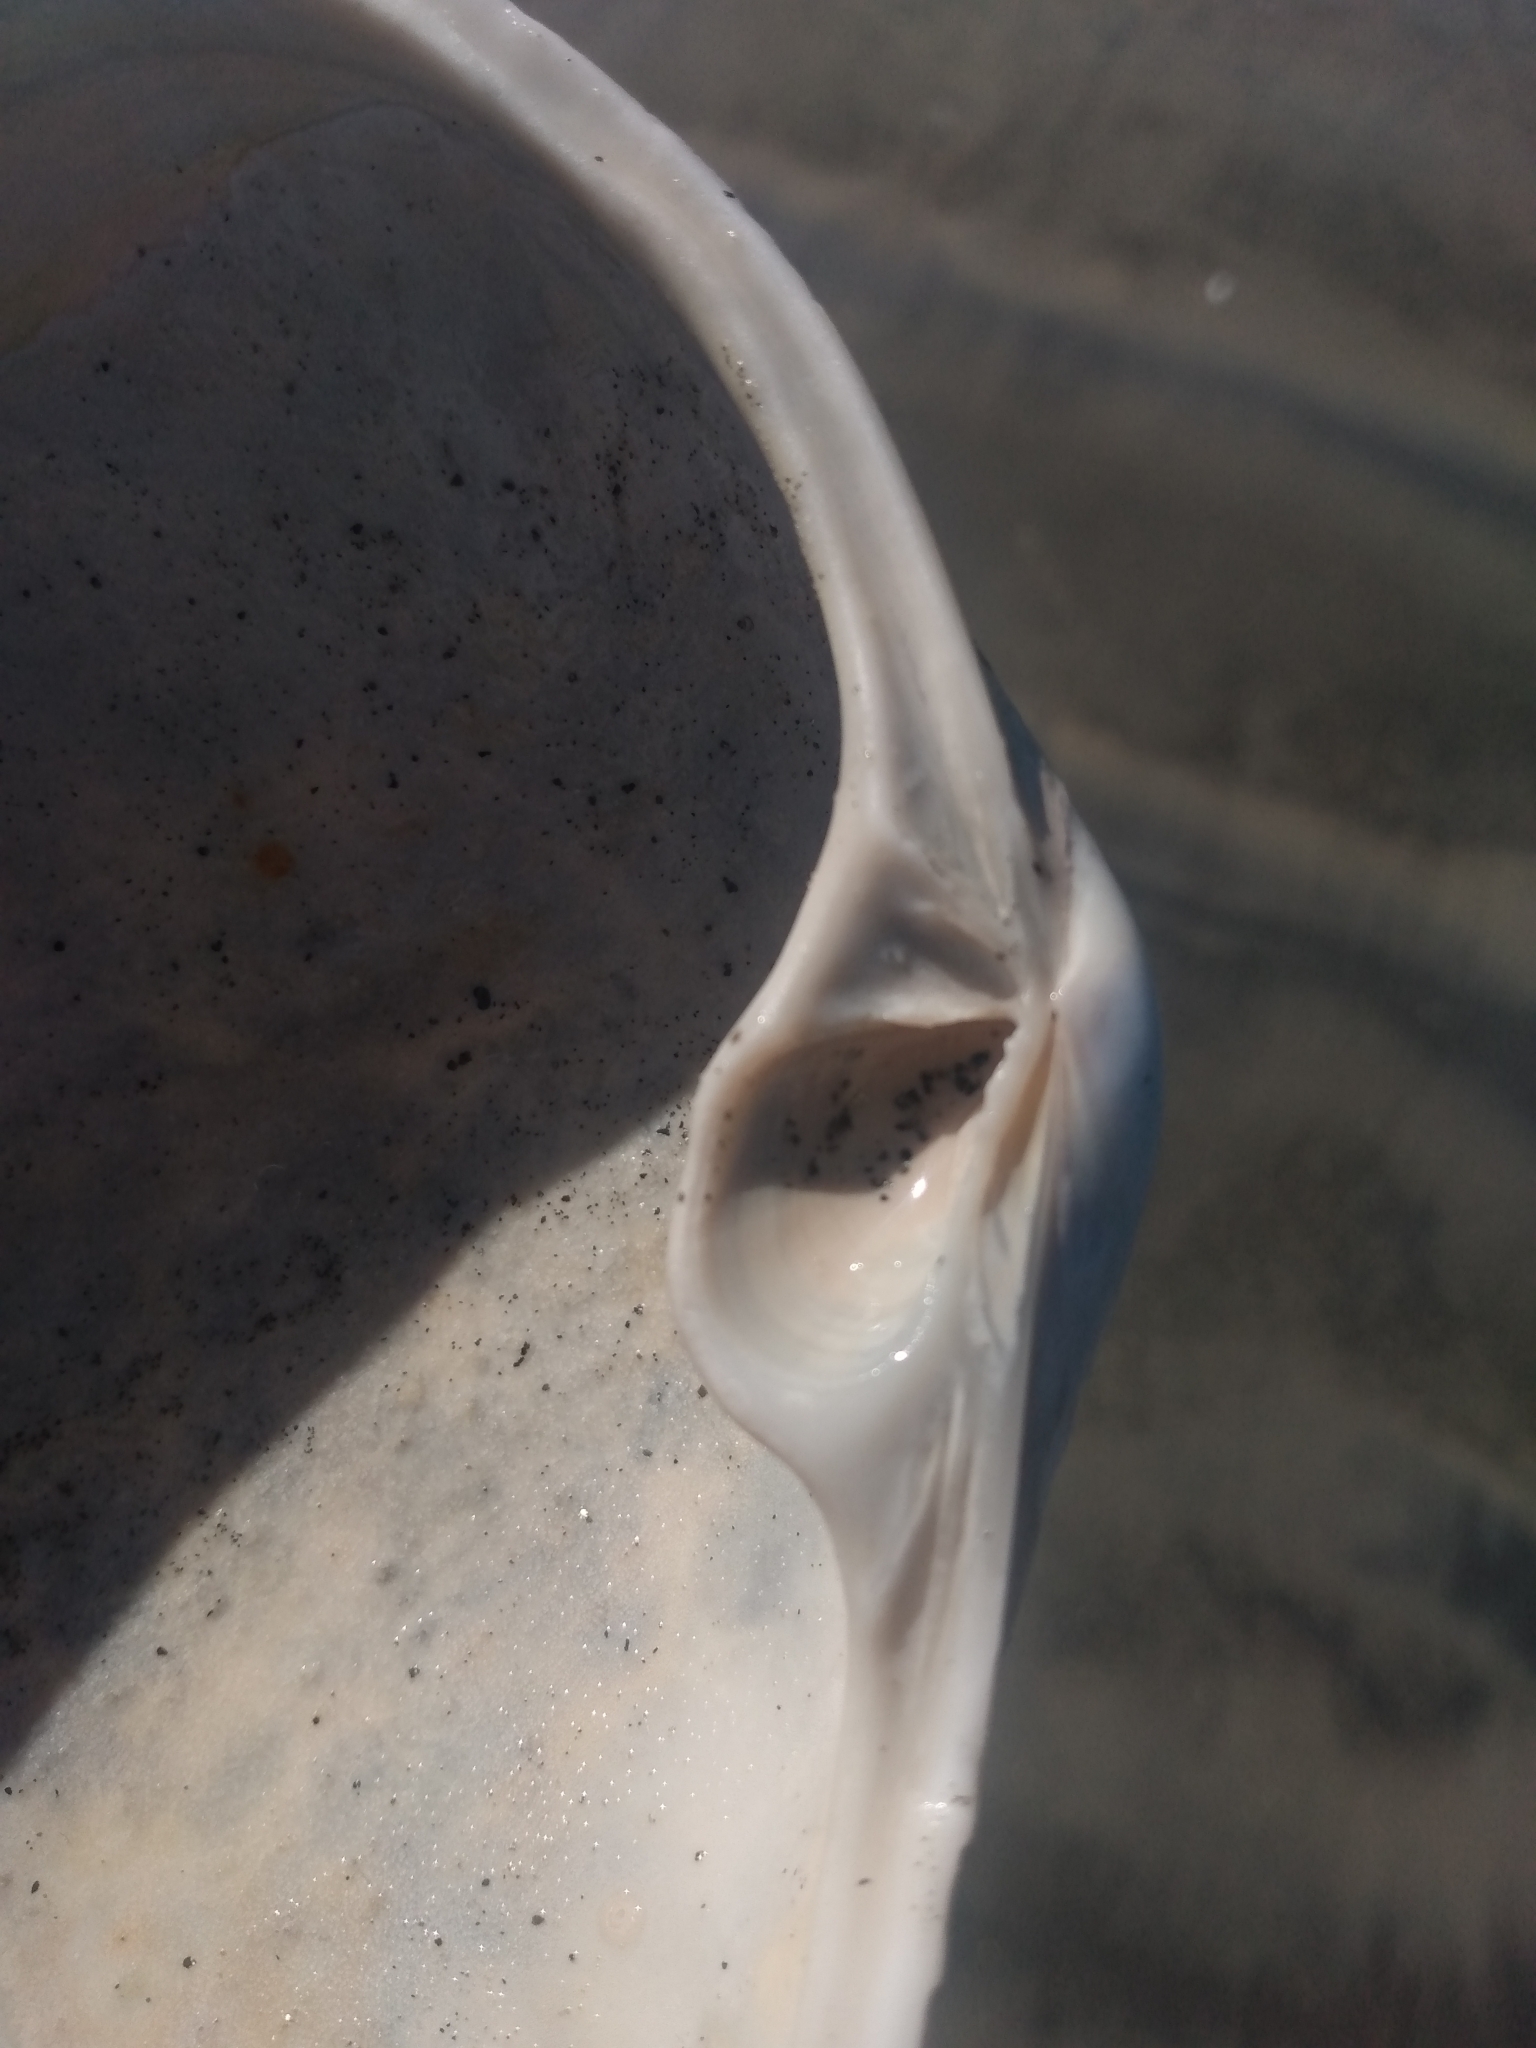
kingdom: Animalia
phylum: Mollusca
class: Bivalvia
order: Venerida
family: Mactridae
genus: Tresus
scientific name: Tresus nuttallii
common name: Pacific gaper clam
